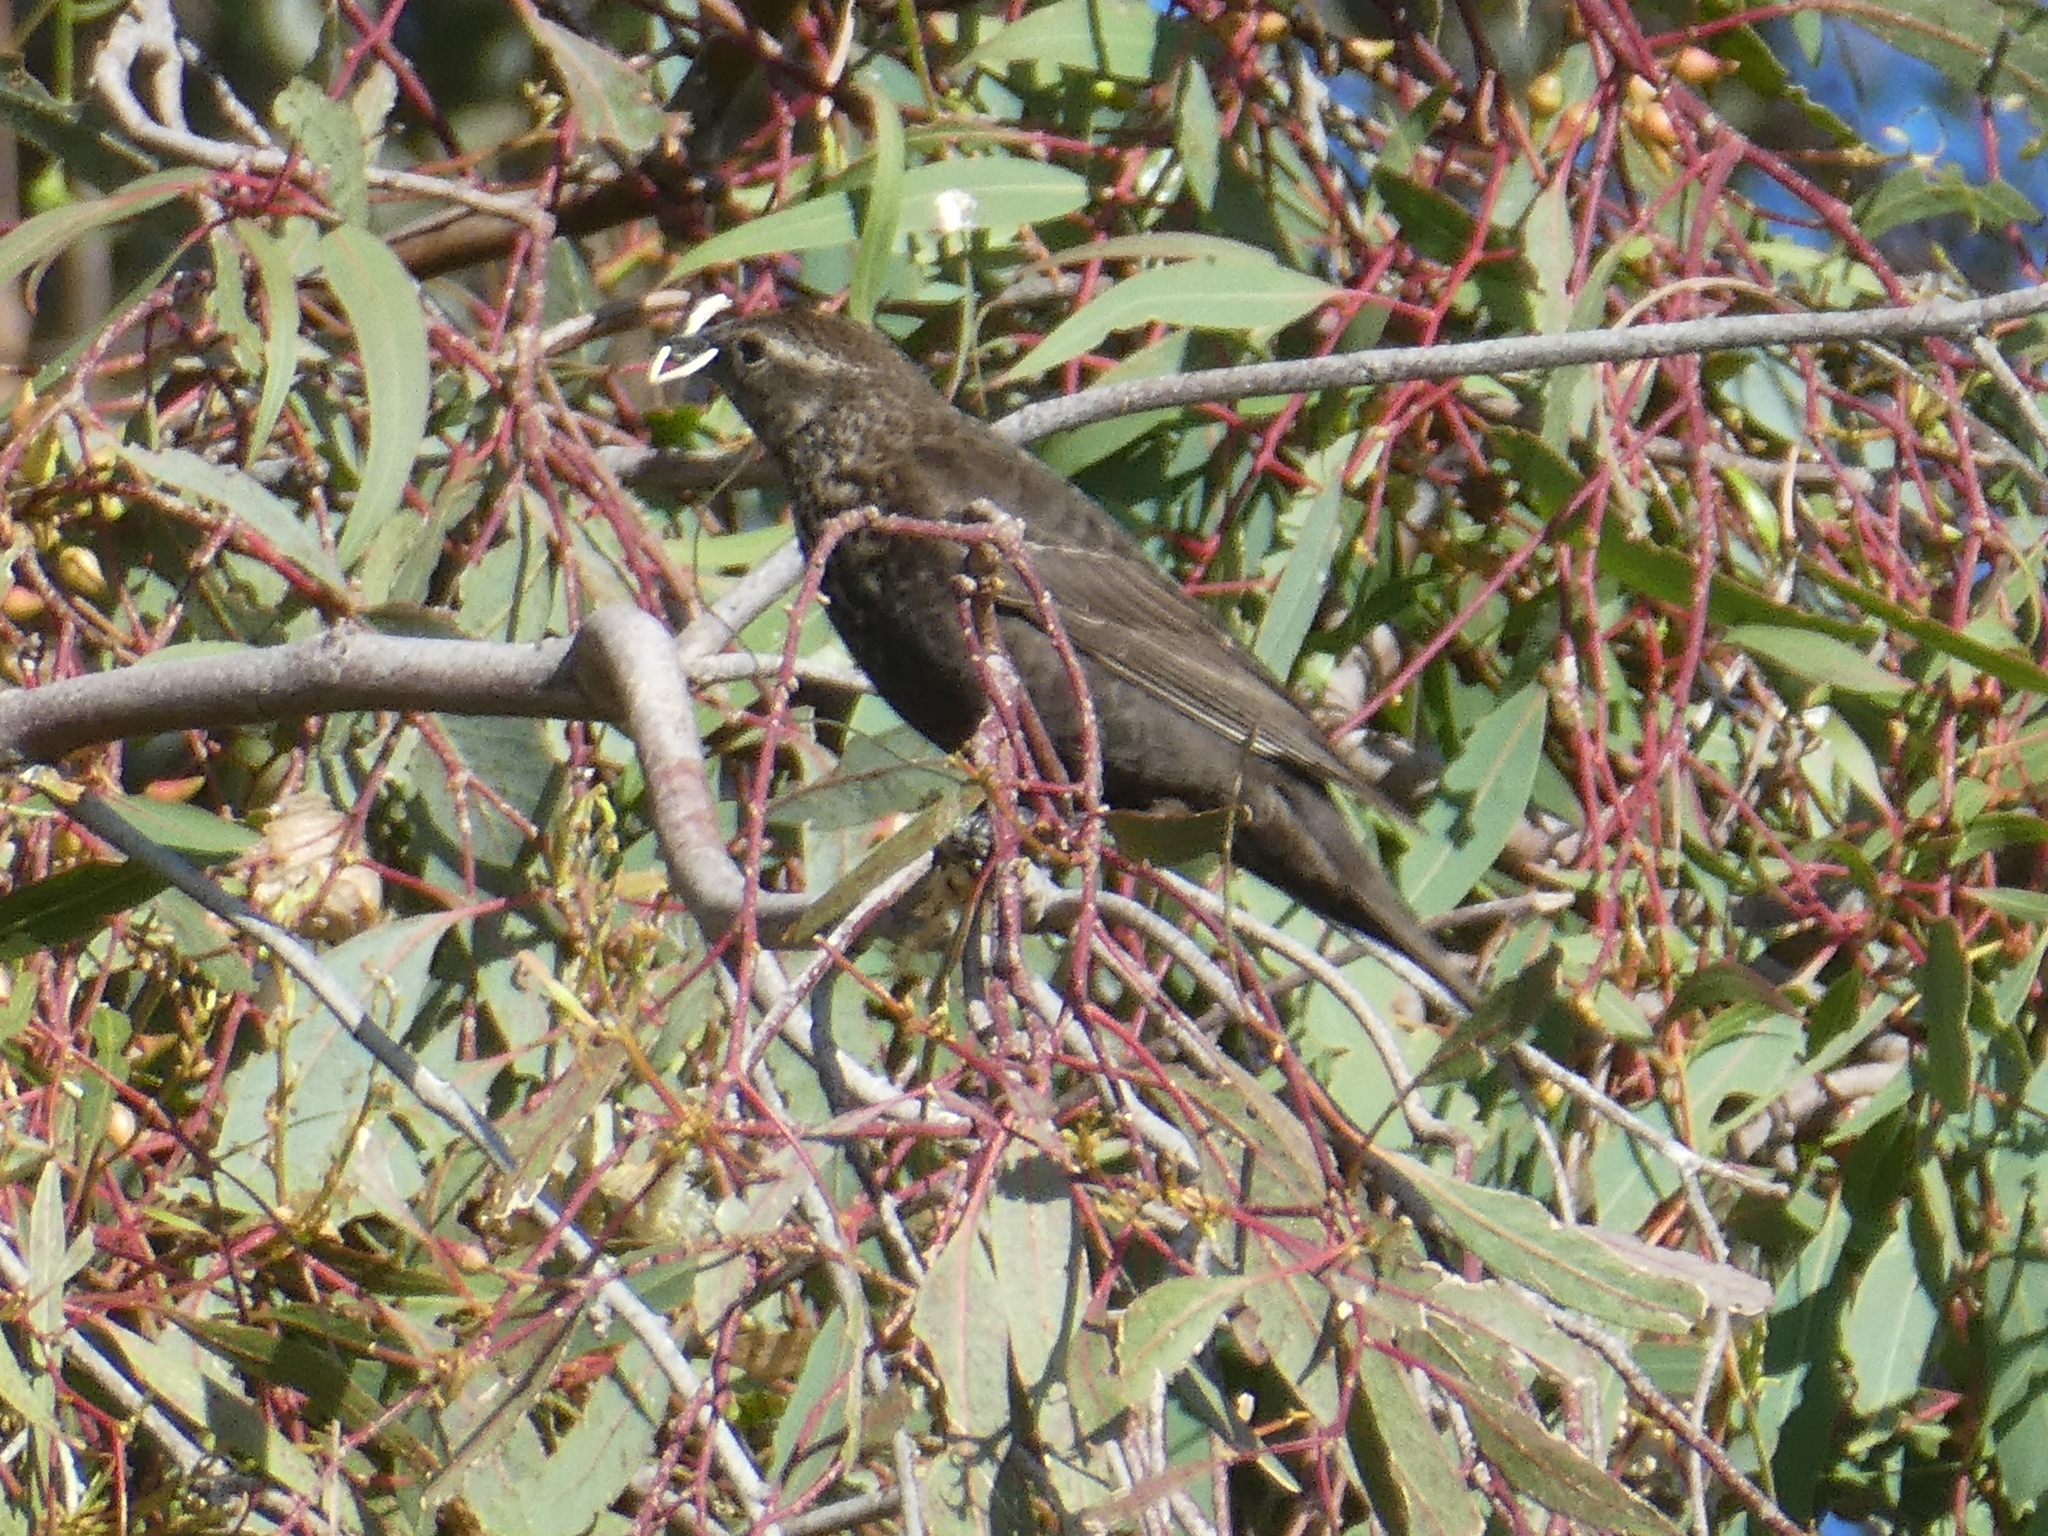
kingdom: Animalia
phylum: Chordata
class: Aves
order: Passeriformes
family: Icteridae
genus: Agelaius
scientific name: Agelaius phoeniceus
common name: Red-winged blackbird
